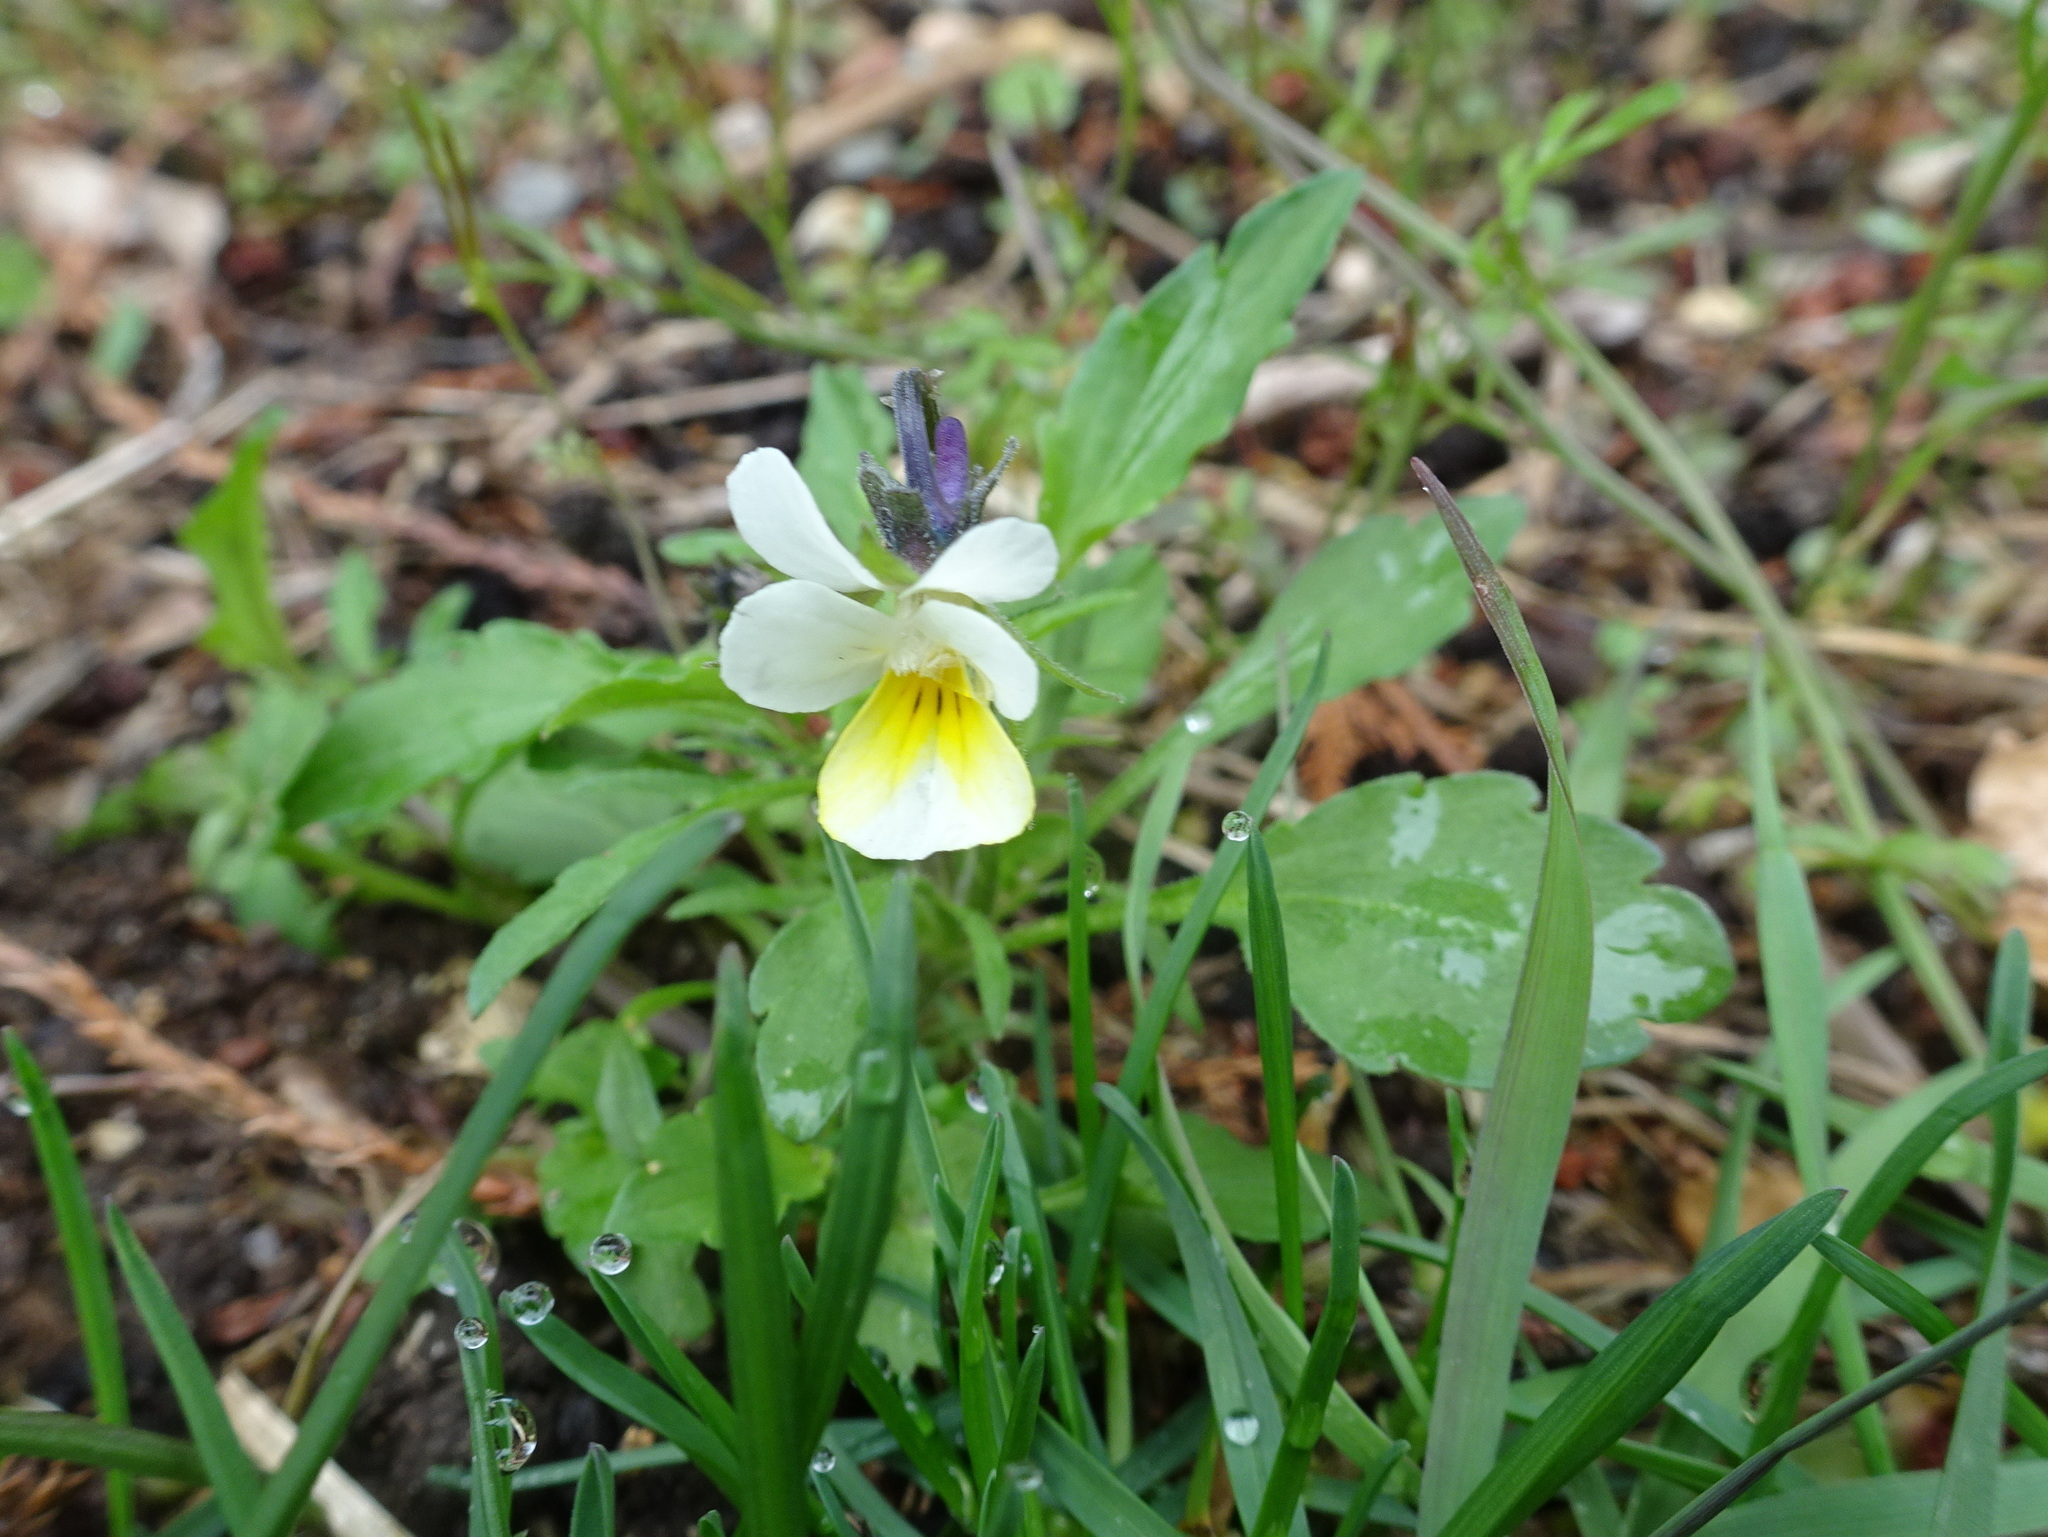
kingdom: Plantae
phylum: Tracheophyta
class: Magnoliopsida
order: Malpighiales
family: Violaceae
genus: Viola
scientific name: Viola arvensis
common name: Field pansy
